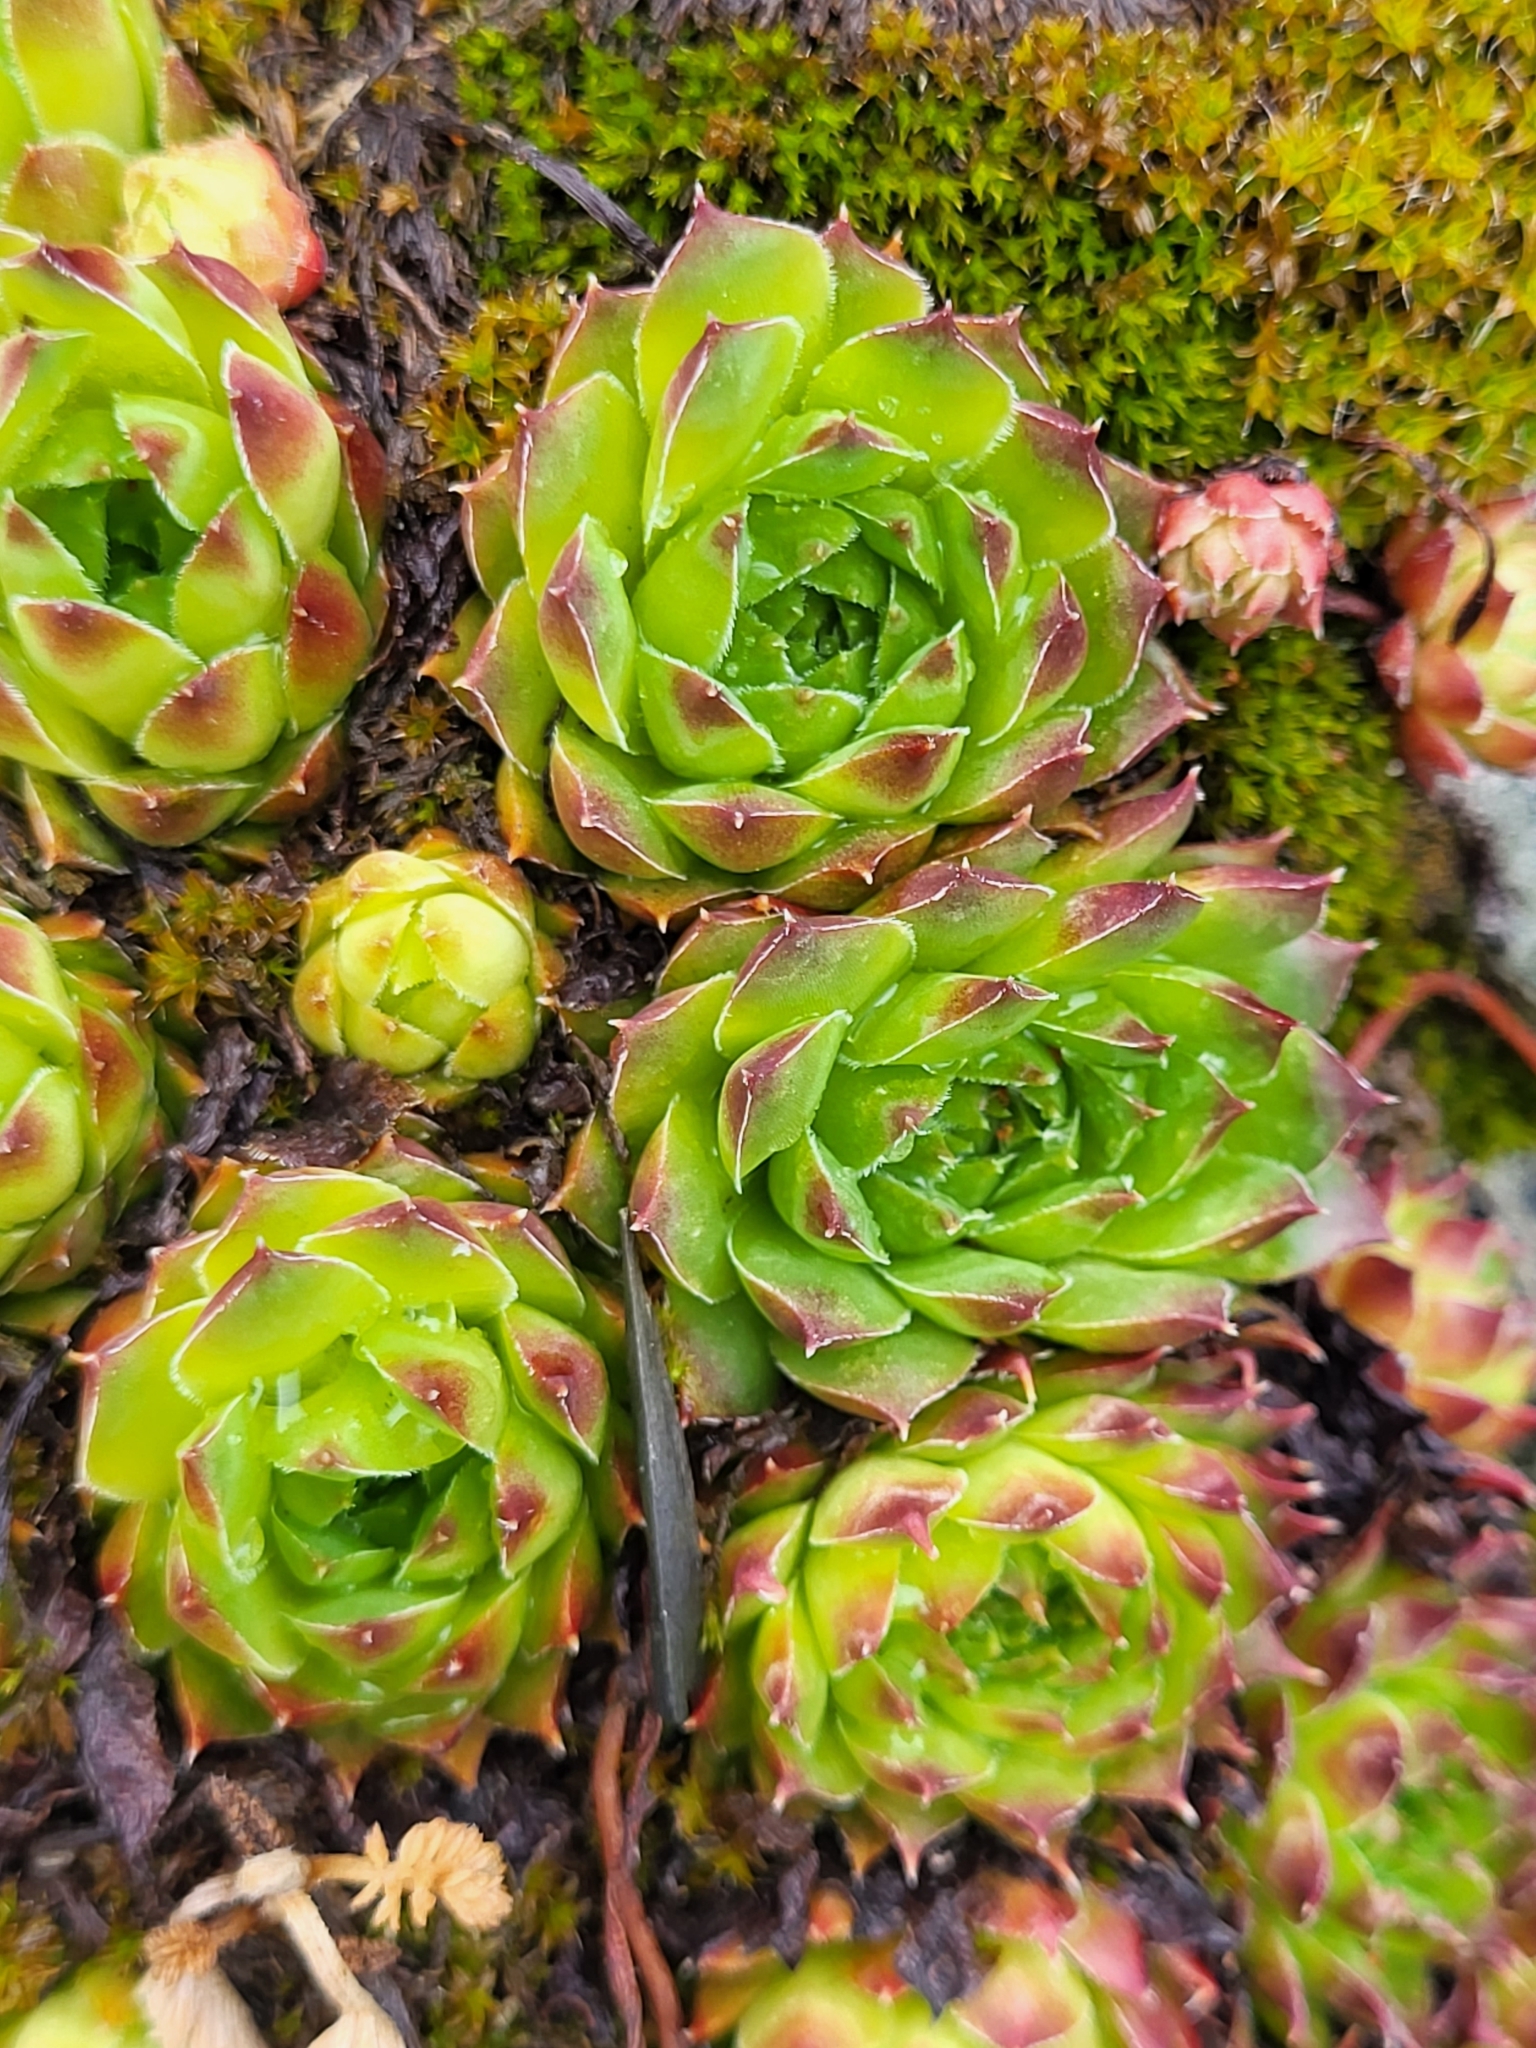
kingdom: Plantae
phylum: Tracheophyta
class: Magnoliopsida
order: Saxifragales
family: Crassulaceae
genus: Sempervivum
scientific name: Sempervivum caucasicum
